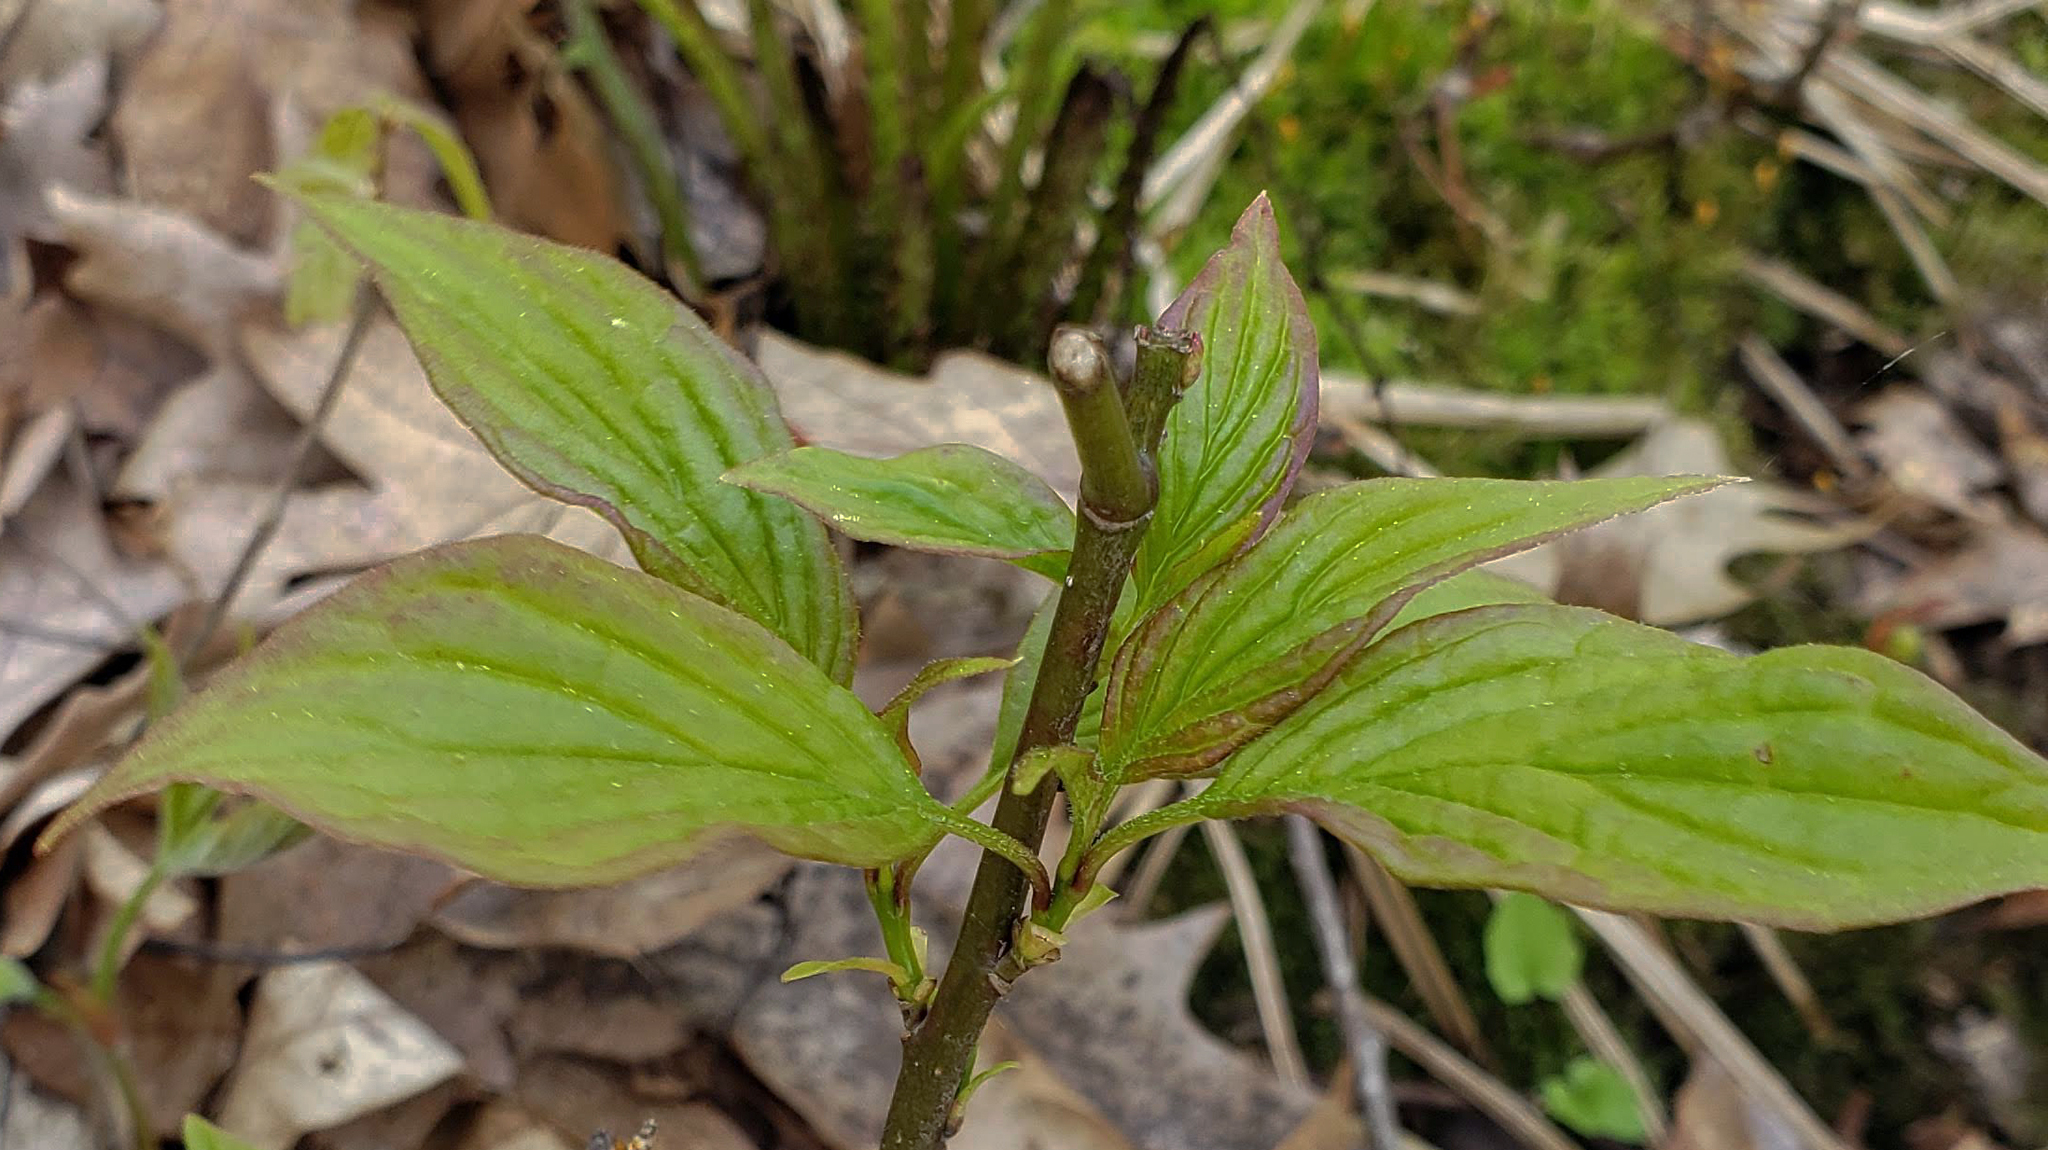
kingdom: Plantae
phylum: Tracheophyta
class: Magnoliopsida
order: Cornales
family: Cornaceae
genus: Cornus
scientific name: Cornus alternifolia
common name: Pagoda dogwood
